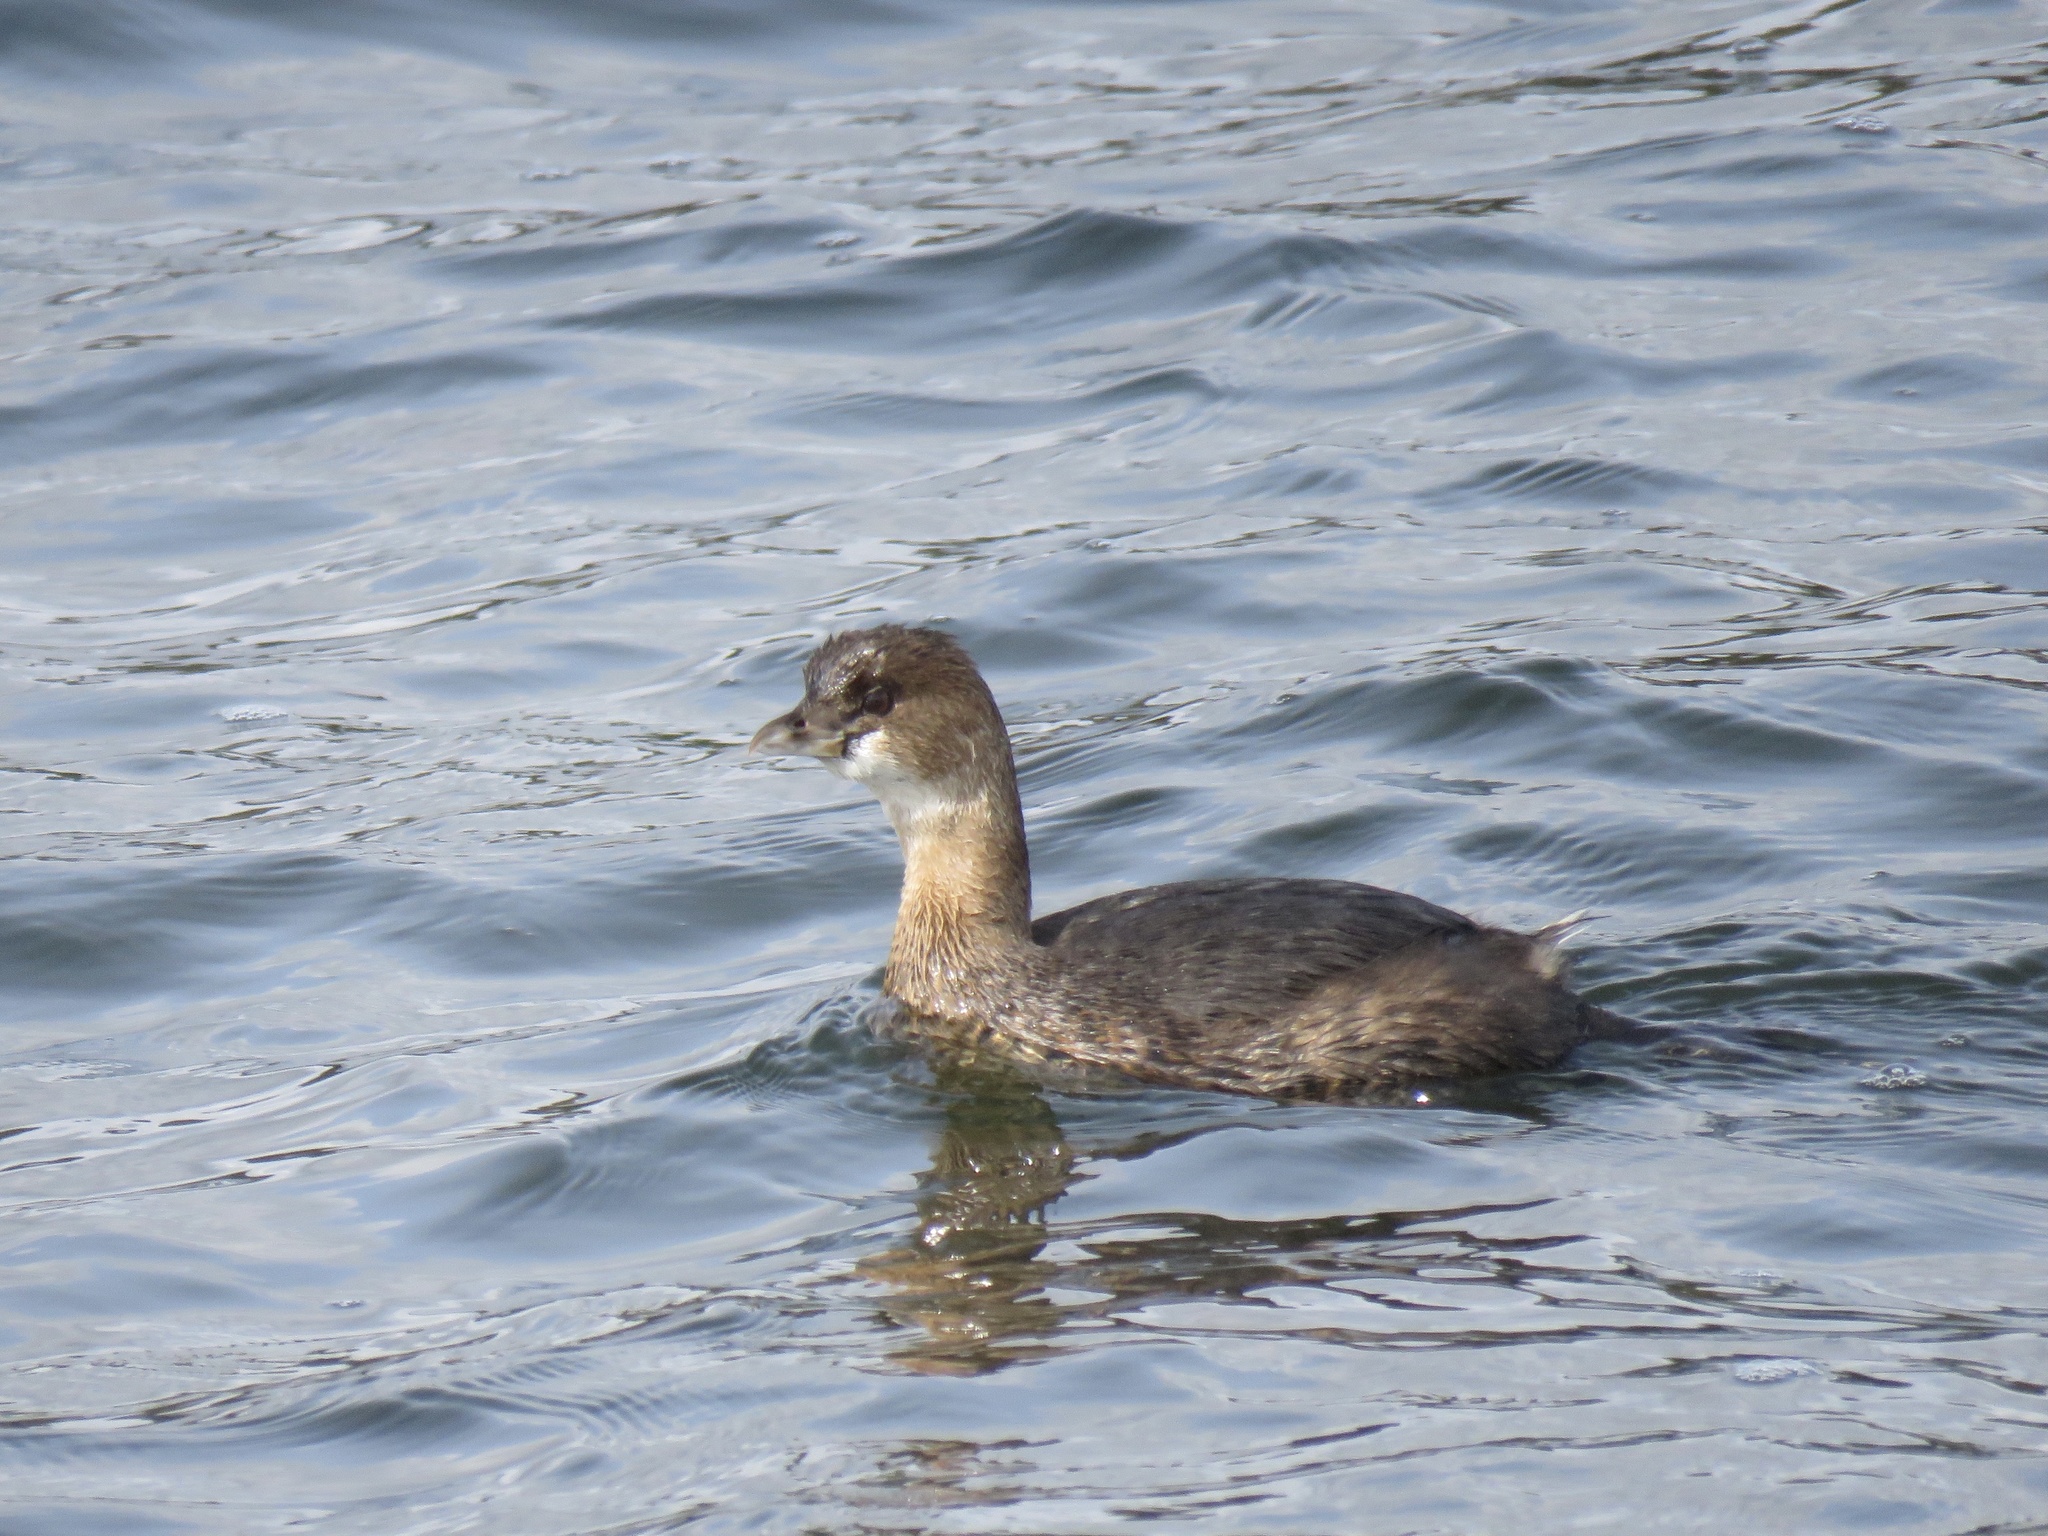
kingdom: Animalia
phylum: Chordata
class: Aves
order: Podicipediformes
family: Podicipedidae
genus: Podilymbus
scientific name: Podilymbus podiceps
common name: Pied-billed grebe
